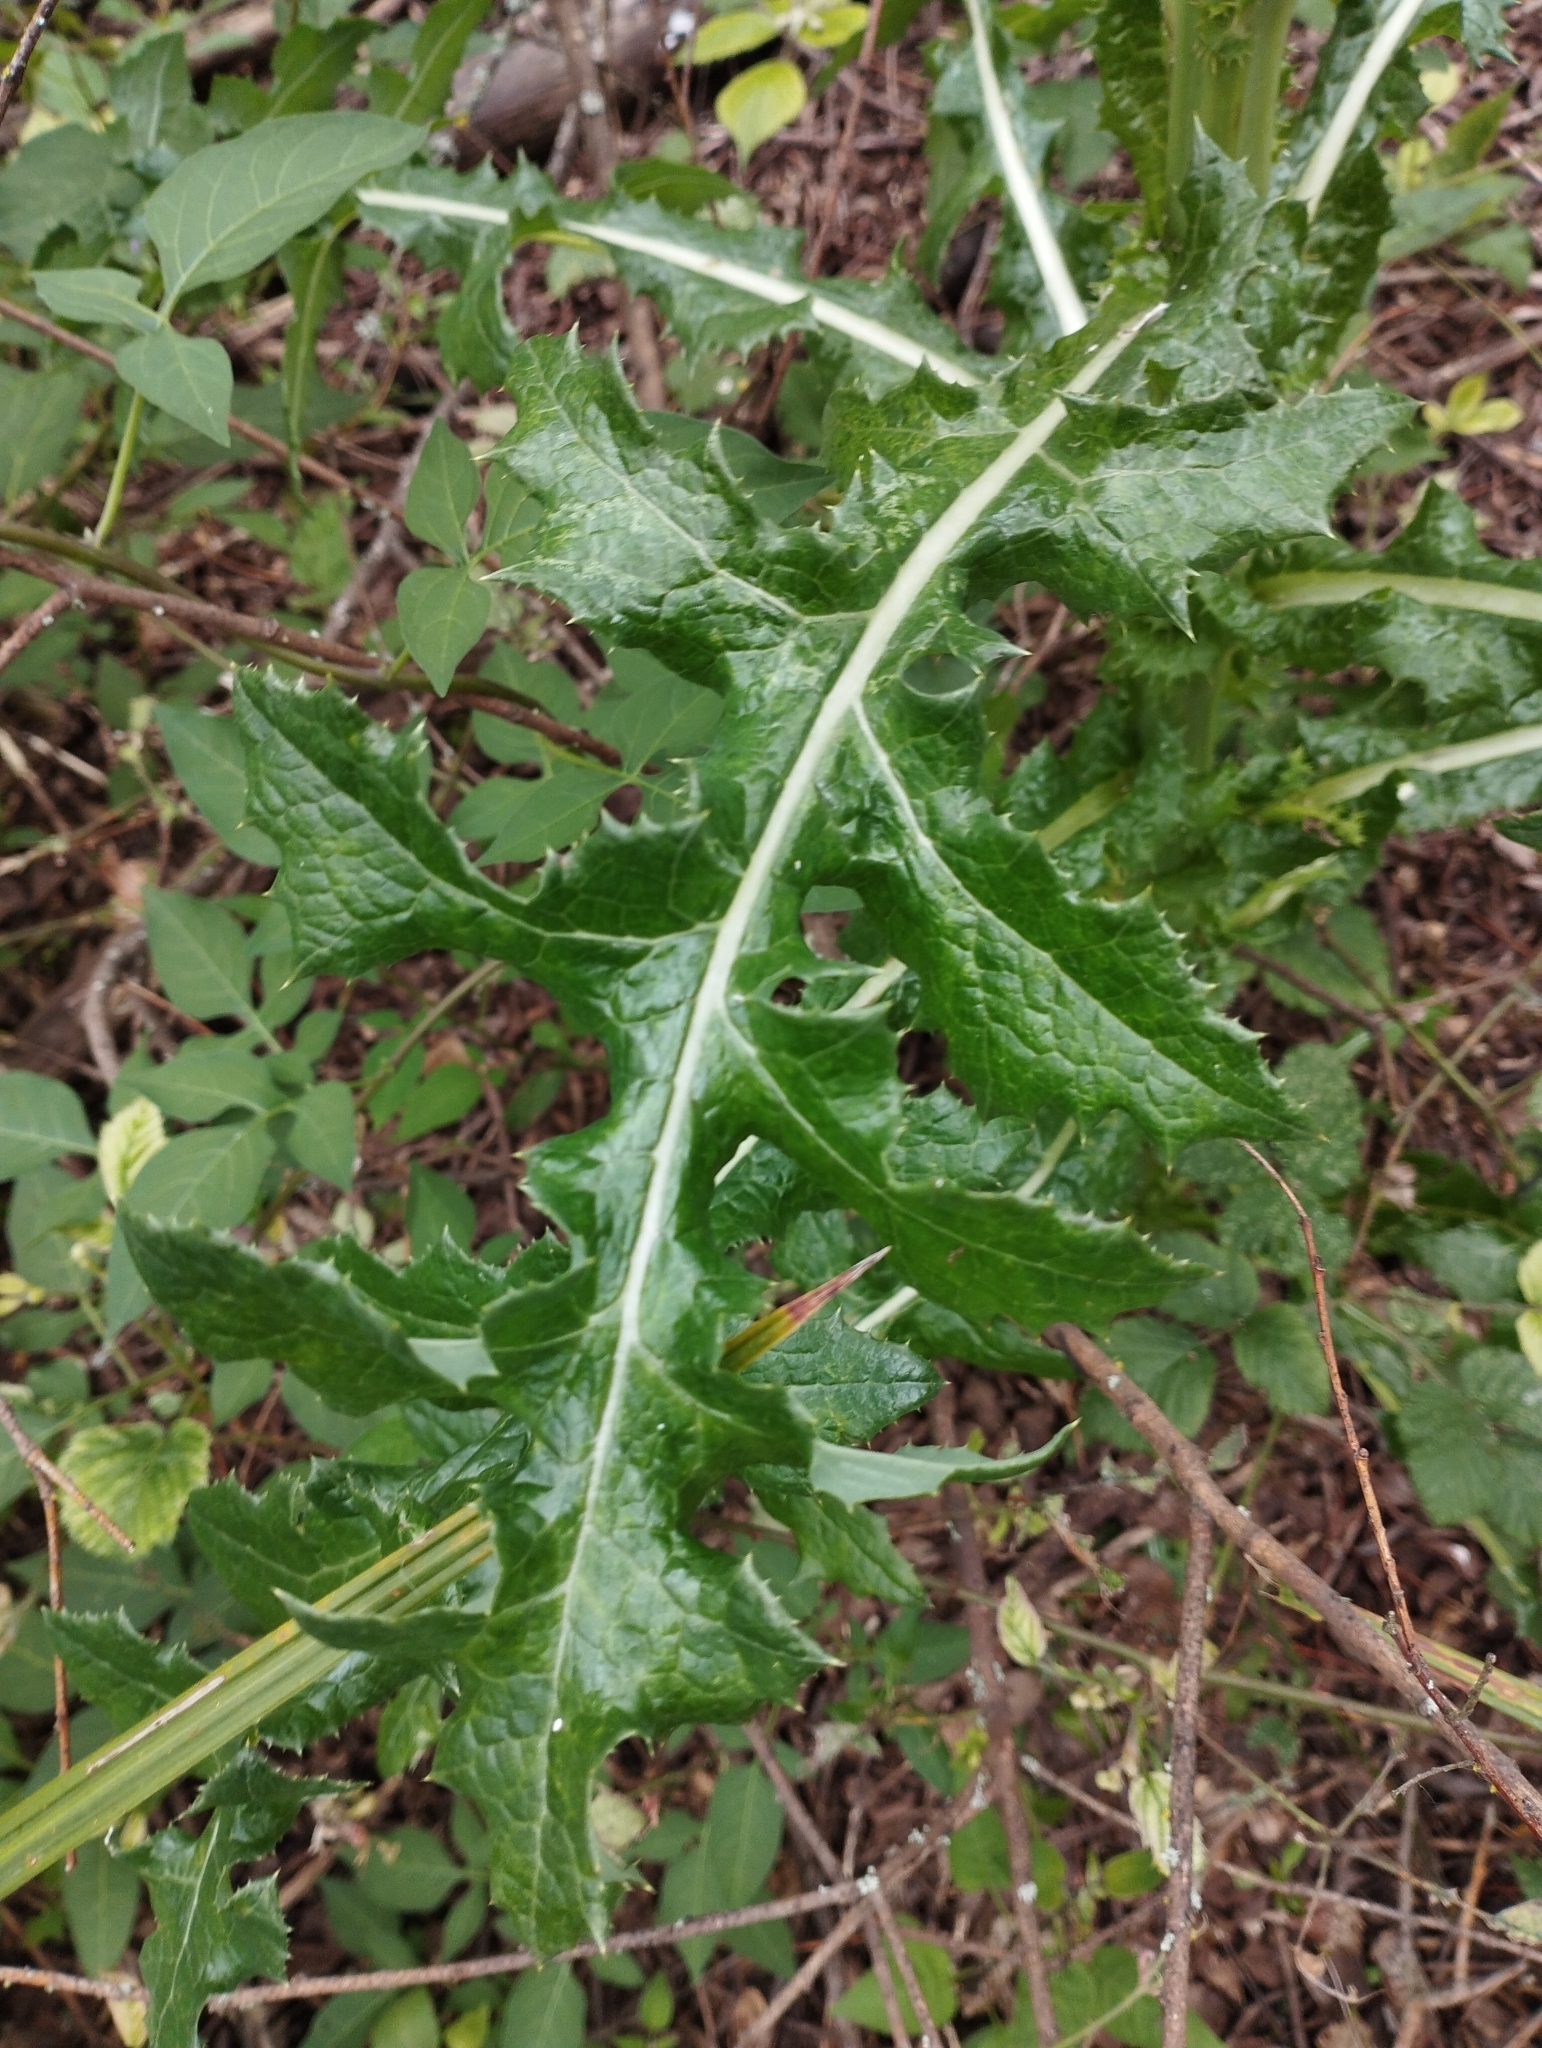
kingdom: Plantae
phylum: Tracheophyta
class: Magnoliopsida
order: Asterales
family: Asteraceae
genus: Sonchus
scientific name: Sonchus asper
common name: Prickly sow-thistle
